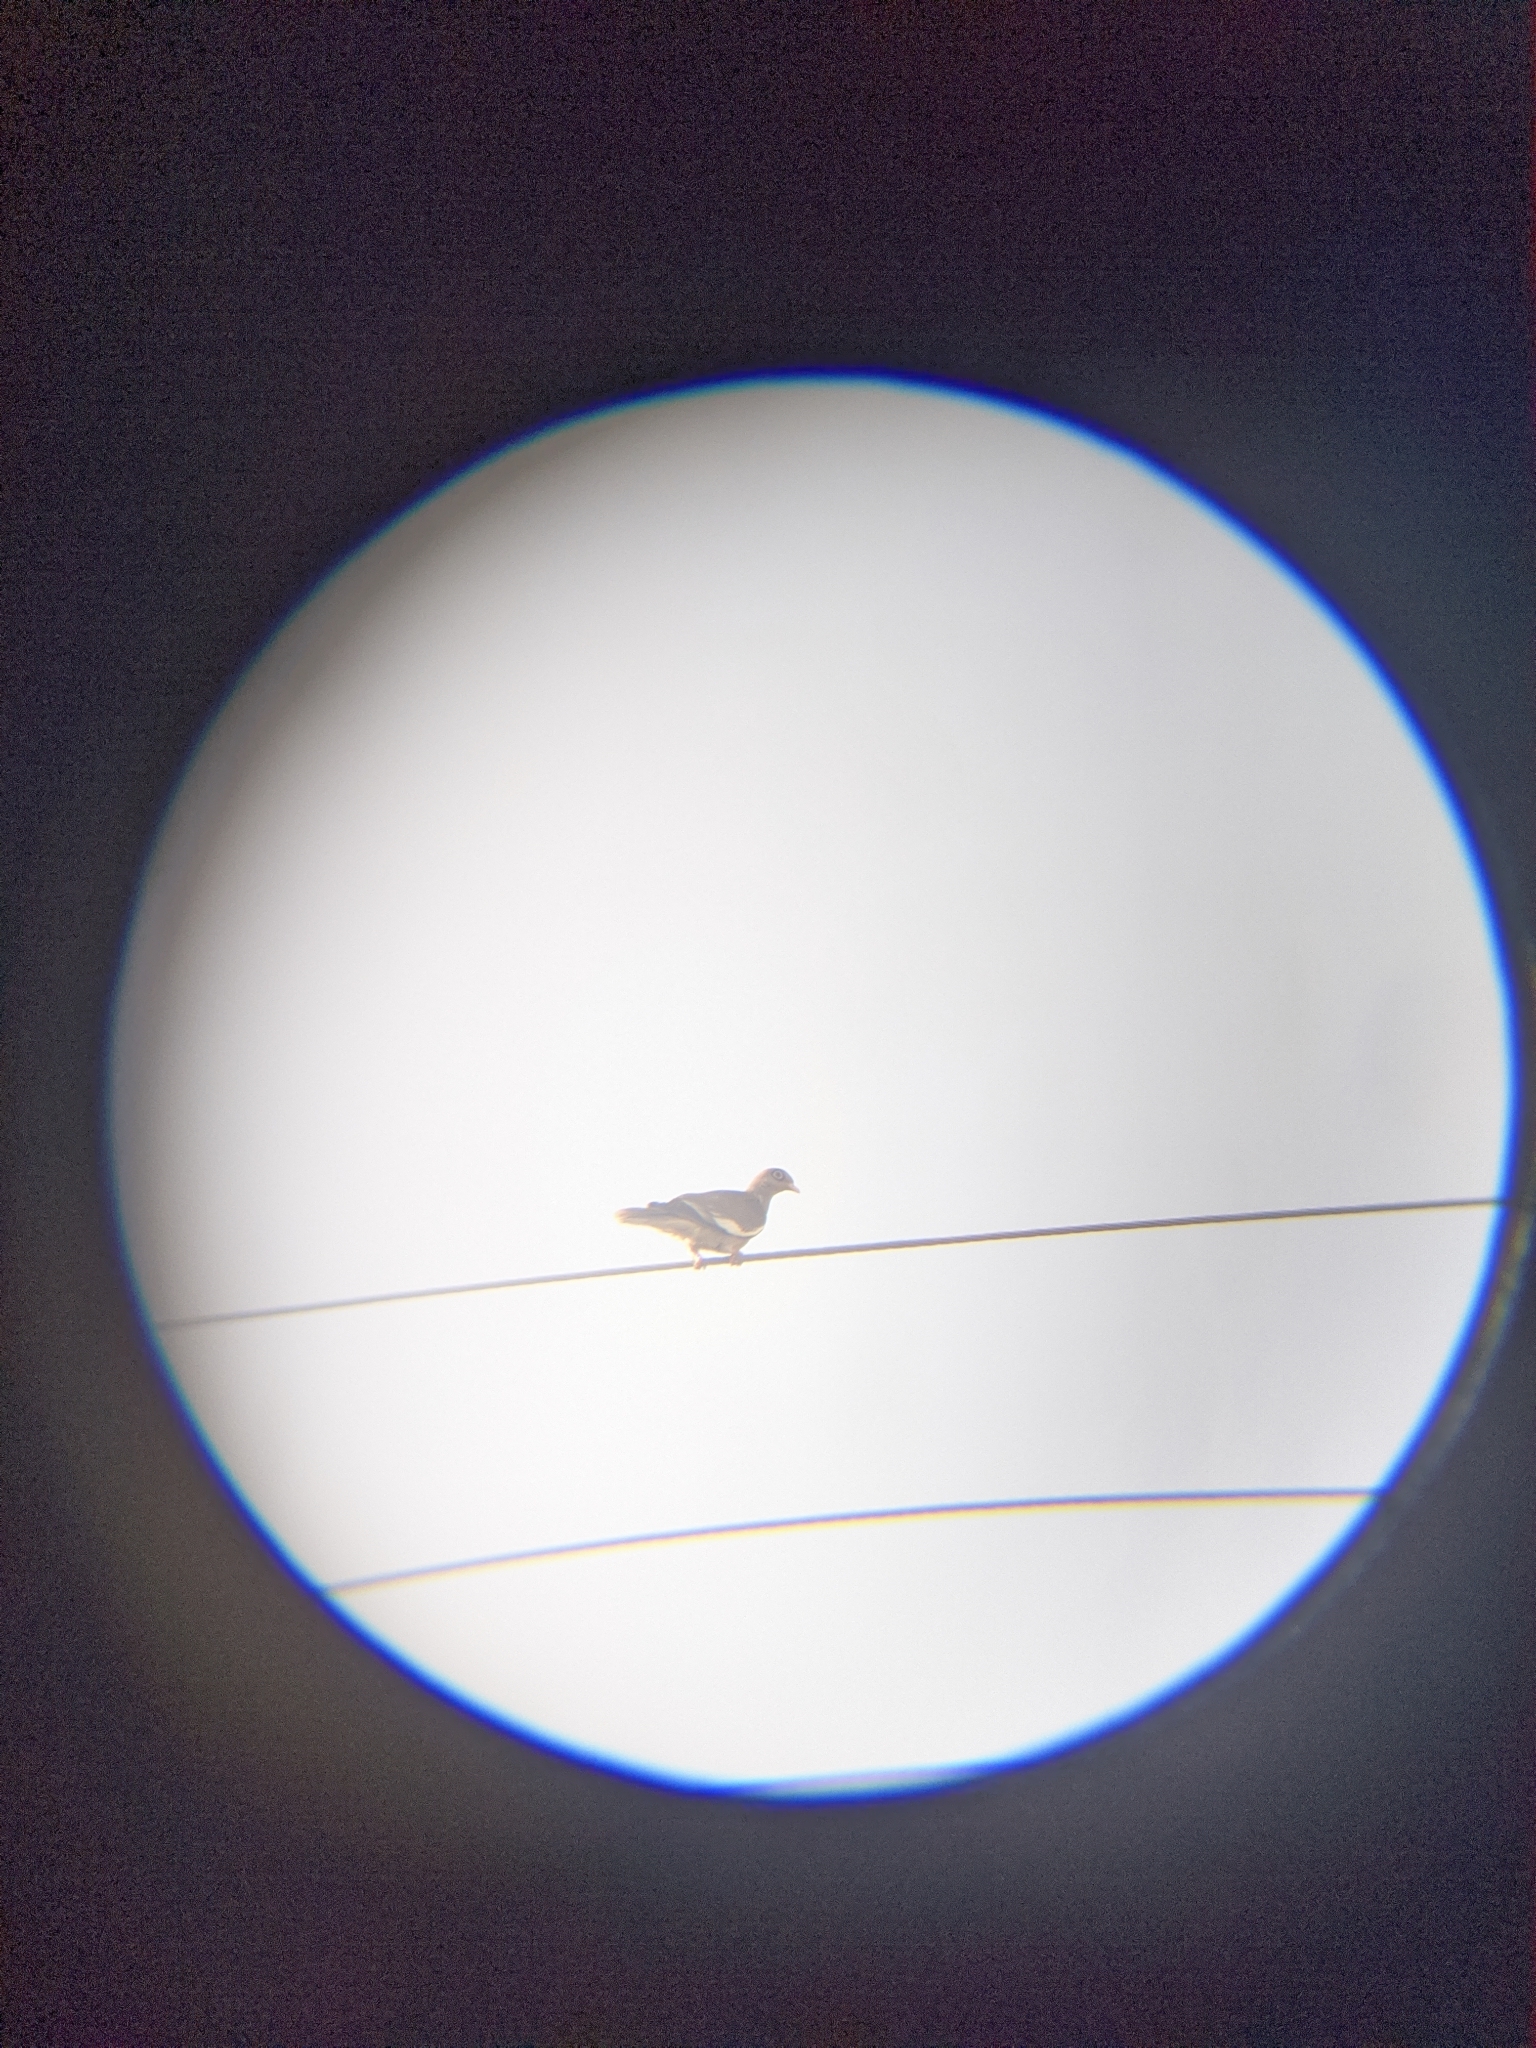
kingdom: Animalia
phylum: Chordata
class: Aves
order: Columbiformes
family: Columbidae
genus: Patagioenas
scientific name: Patagioenas corensis
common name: Bare-eyed pigeon
